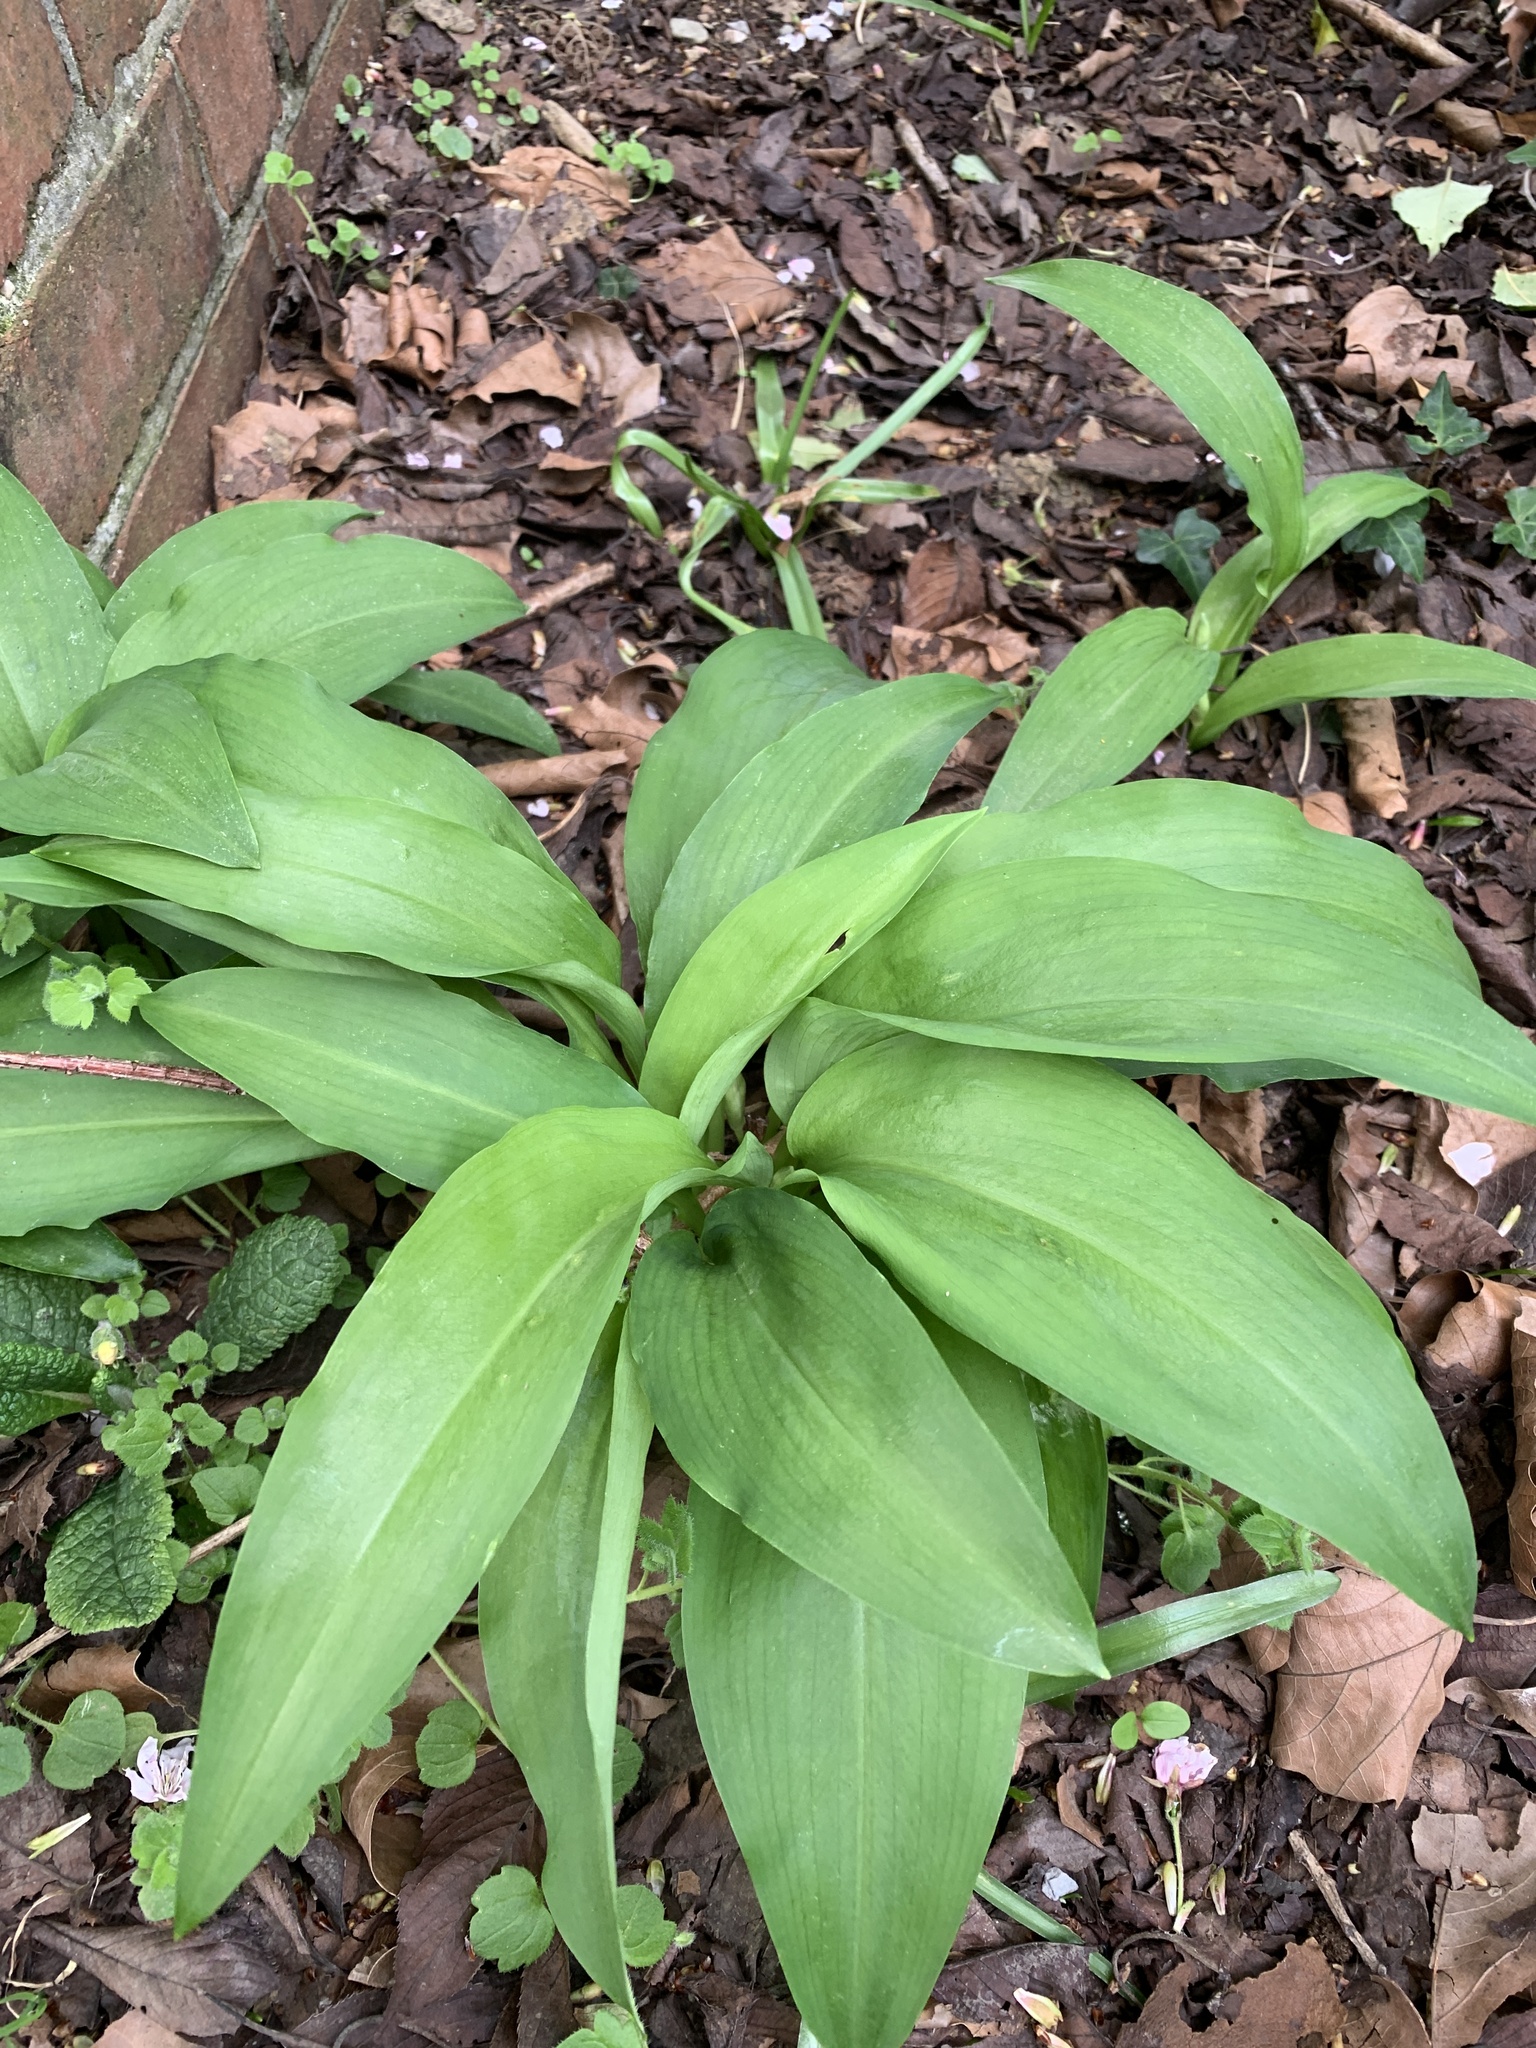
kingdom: Plantae
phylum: Tracheophyta
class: Liliopsida
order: Asparagales
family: Amaryllidaceae
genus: Allium
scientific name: Allium ursinum
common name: Ramsons
